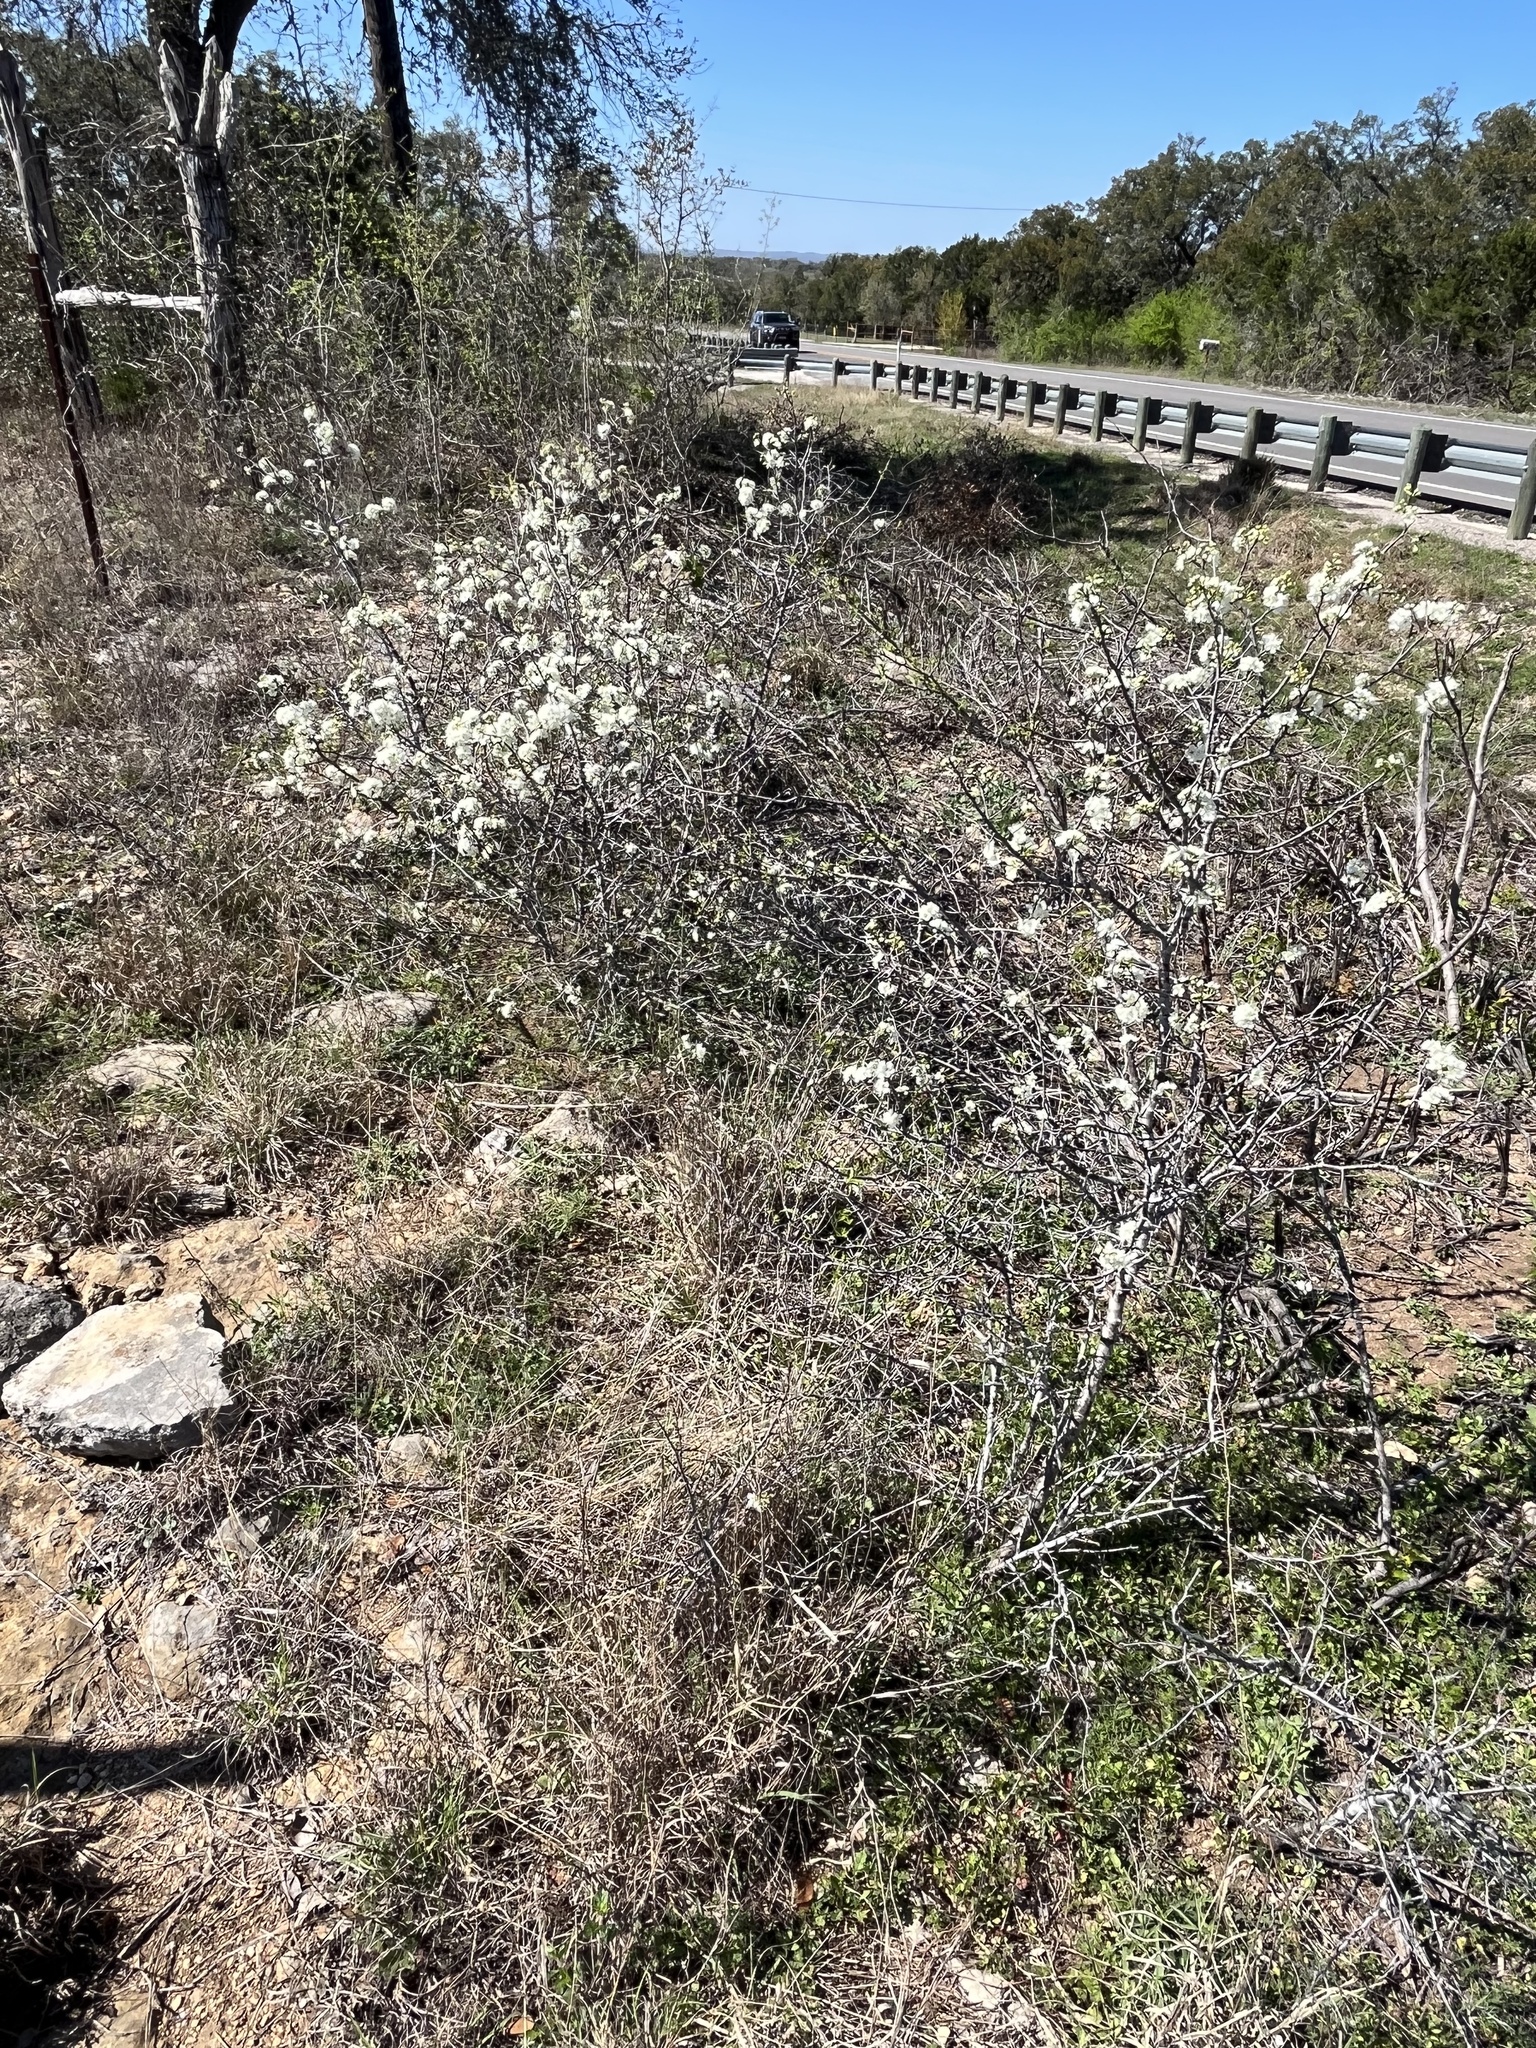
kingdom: Plantae
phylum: Tracheophyta
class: Magnoliopsida
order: Rosales
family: Rosaceae
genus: Prunus
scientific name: Prunus rivularis
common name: Creek plum
